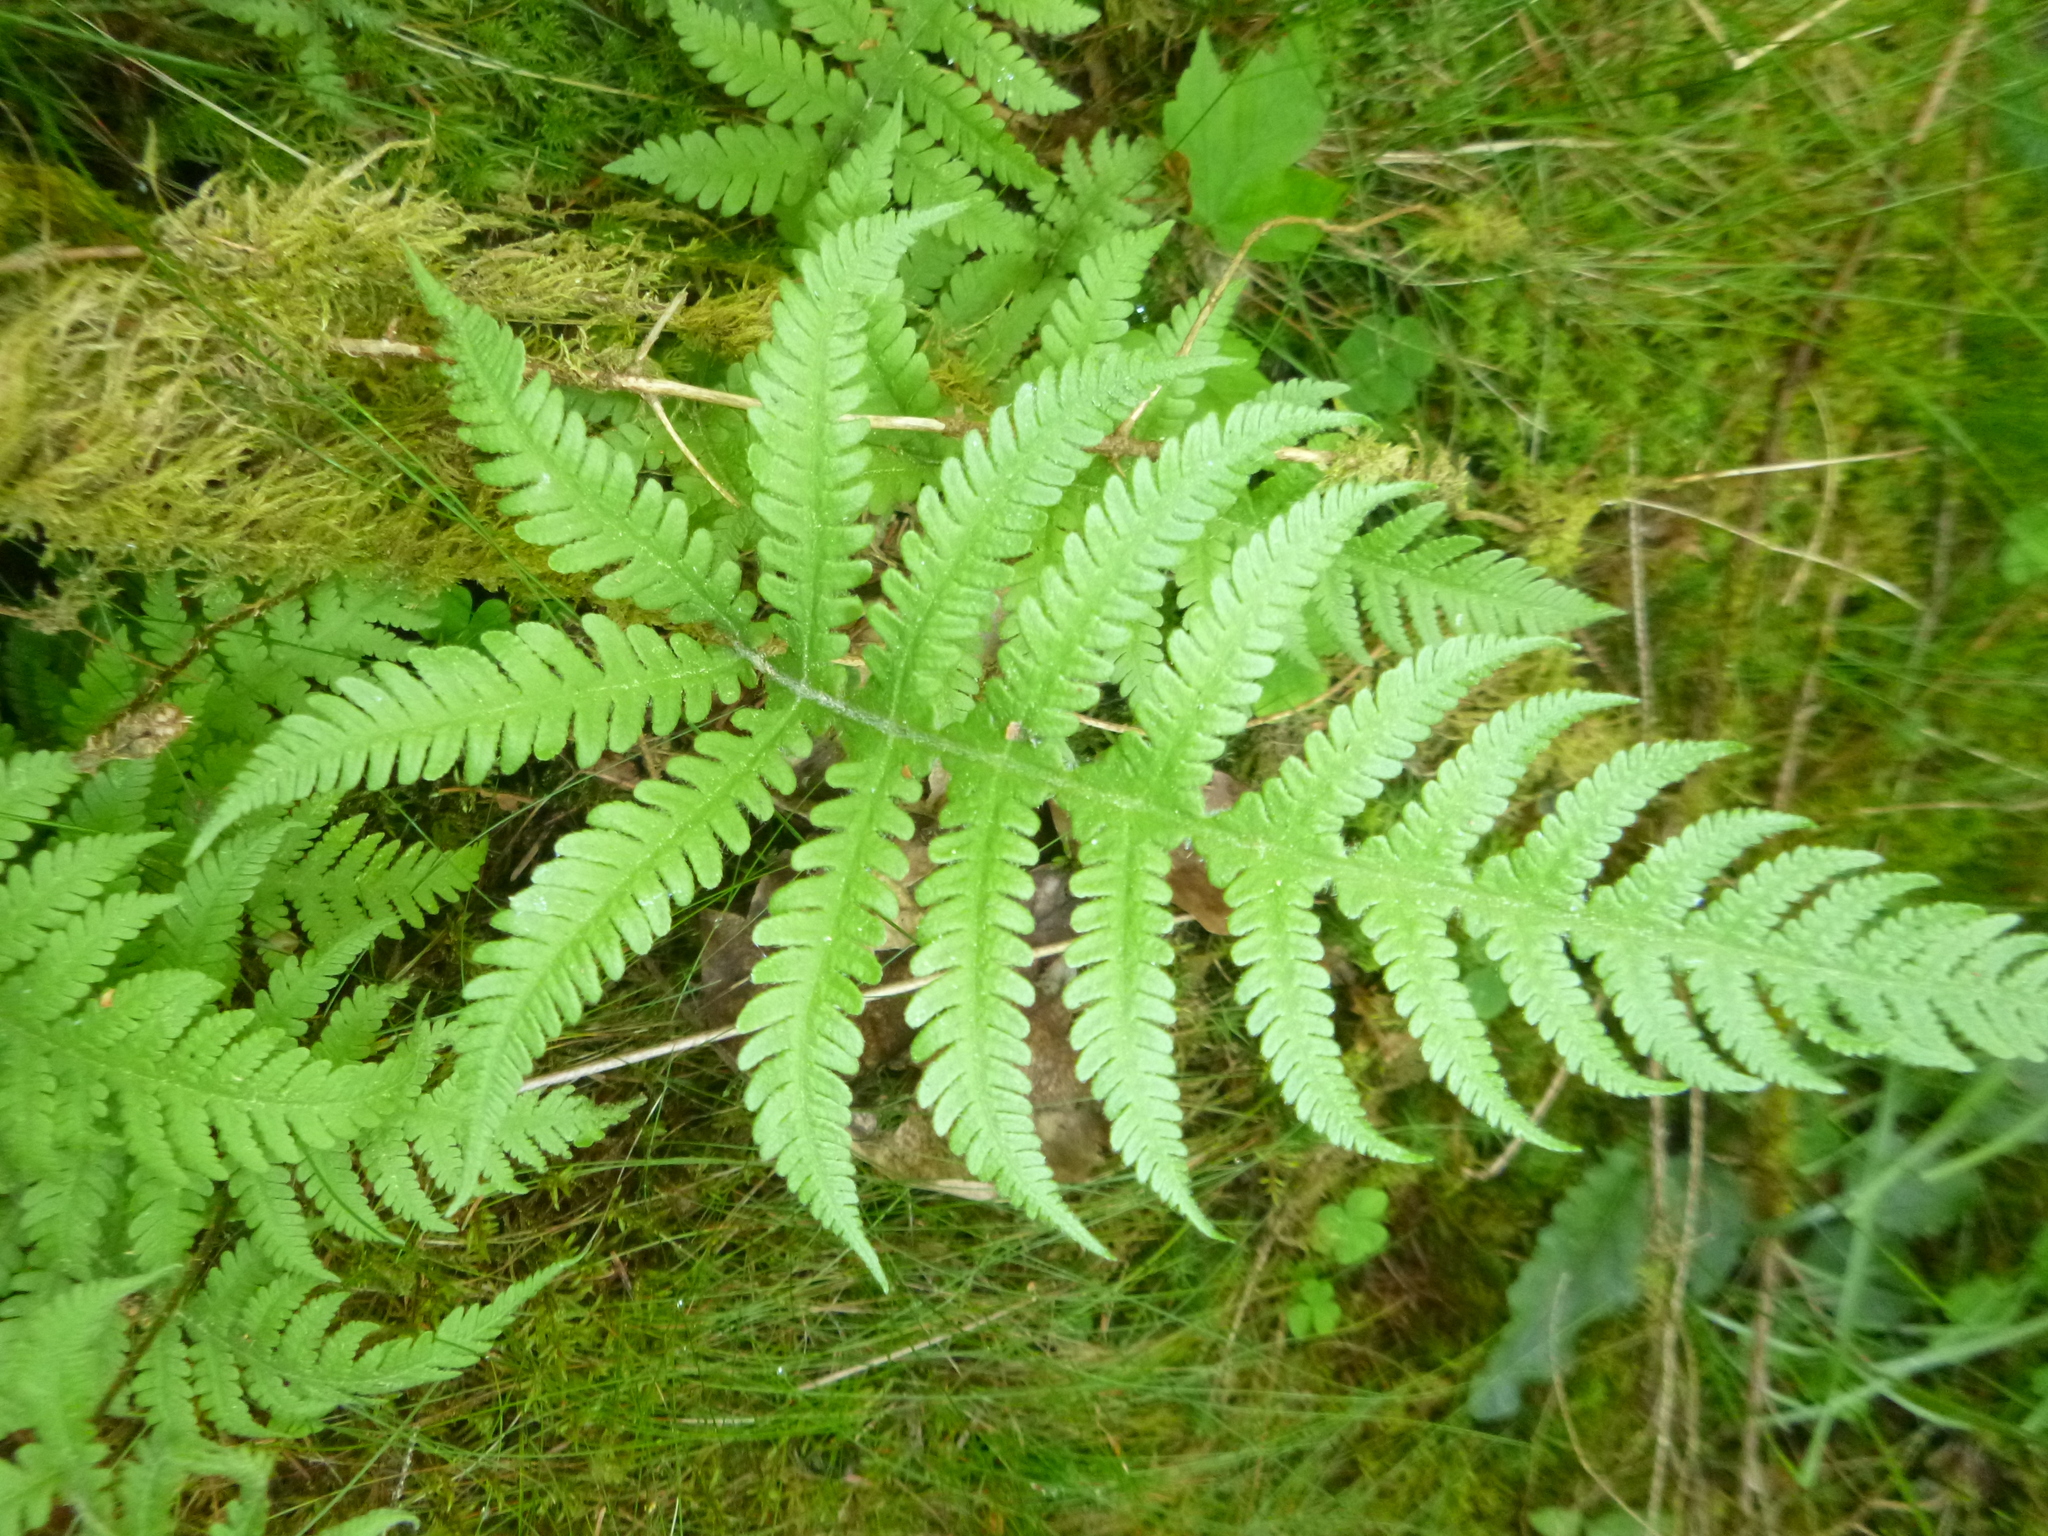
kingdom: Plantae
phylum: Tracheophyta
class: Polypodiopsida
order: Polypodiales
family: Thelypteridaceae
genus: Phegopteris
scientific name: Phegopteris connectilis
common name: Beech fern
